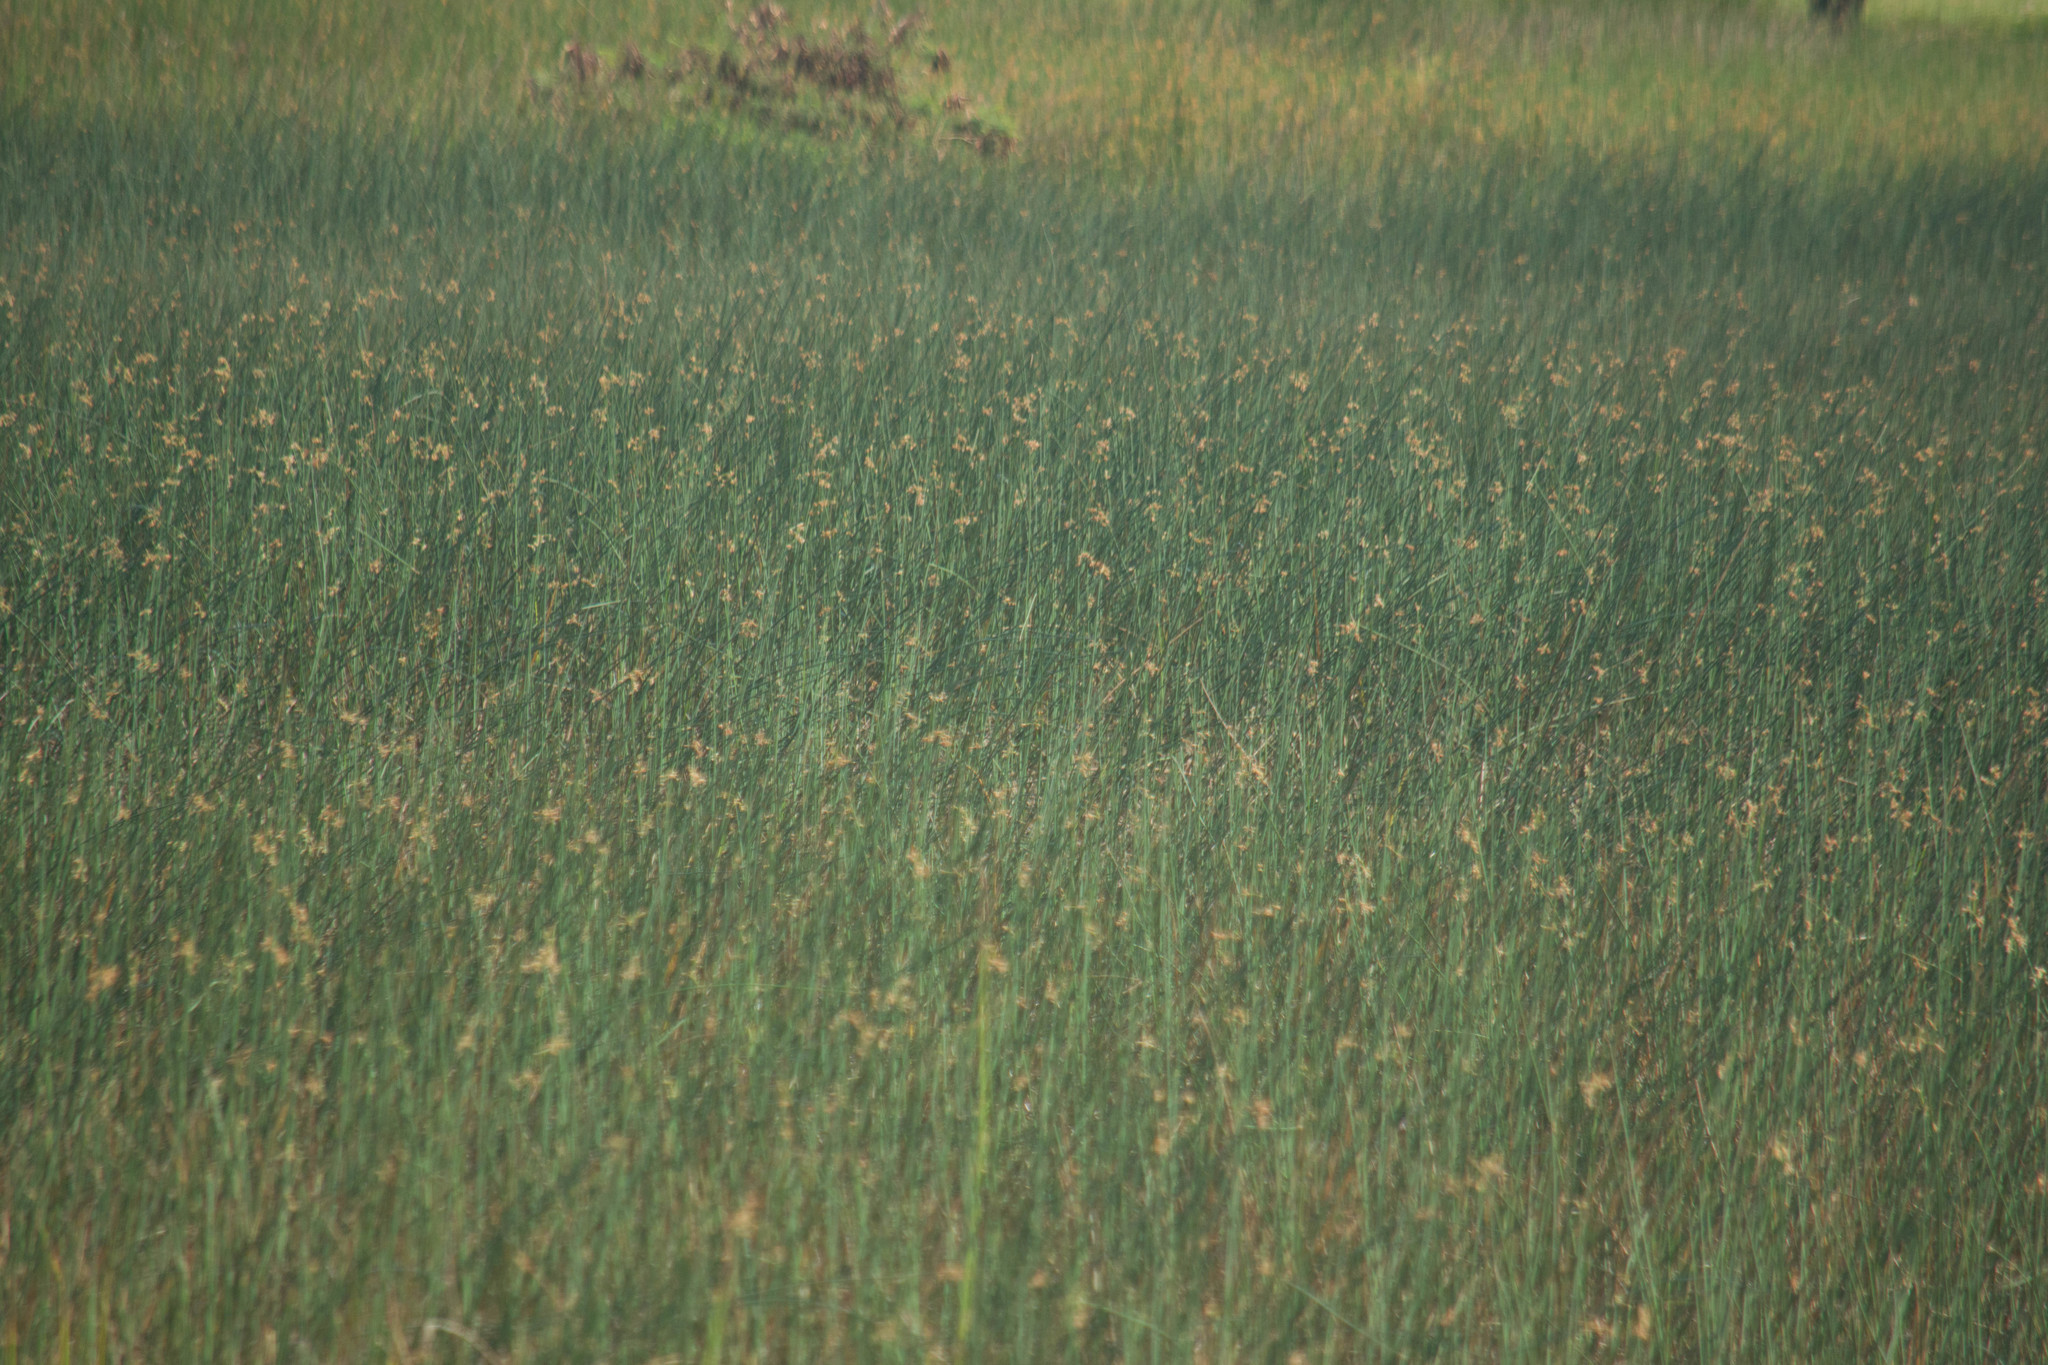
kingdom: Plantae
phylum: Tracheophyta
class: Liliopsida
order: Poales
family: Cyperaceae
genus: Schoenoplectus
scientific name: Schoenoplectus californicus
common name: California bulrush
